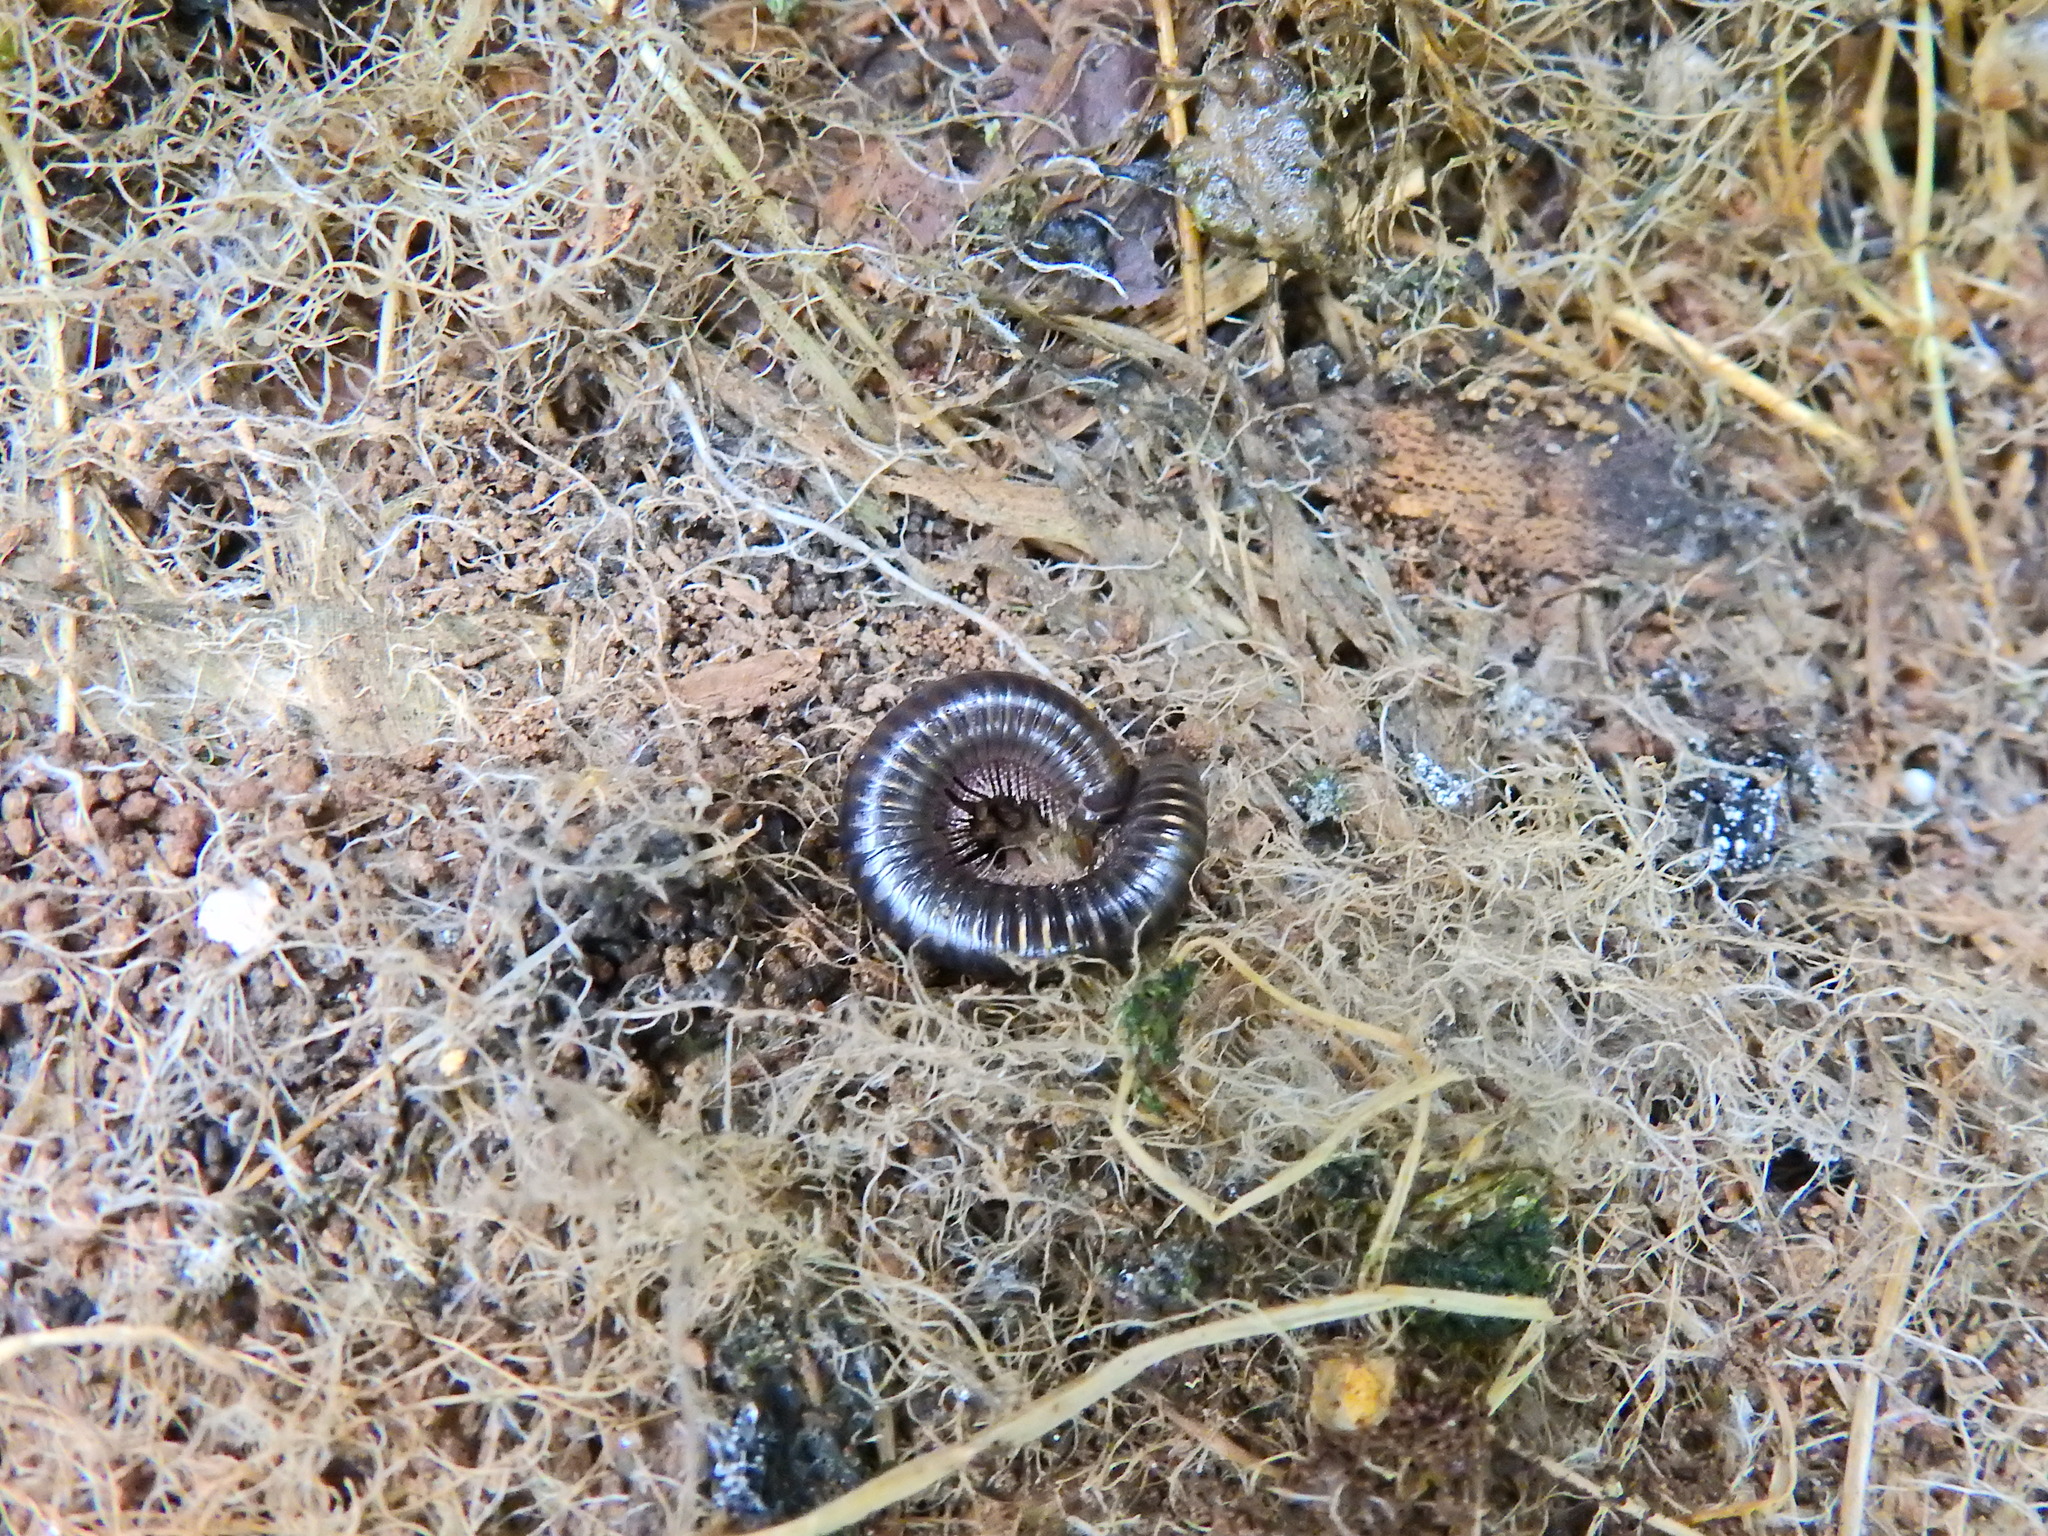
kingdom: Animalia
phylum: Arthropoda
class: Diplopoda
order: Julida
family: Julidae
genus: Tachypodoiulus
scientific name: Tachypodoiulus niger
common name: White-legged snake millipede
